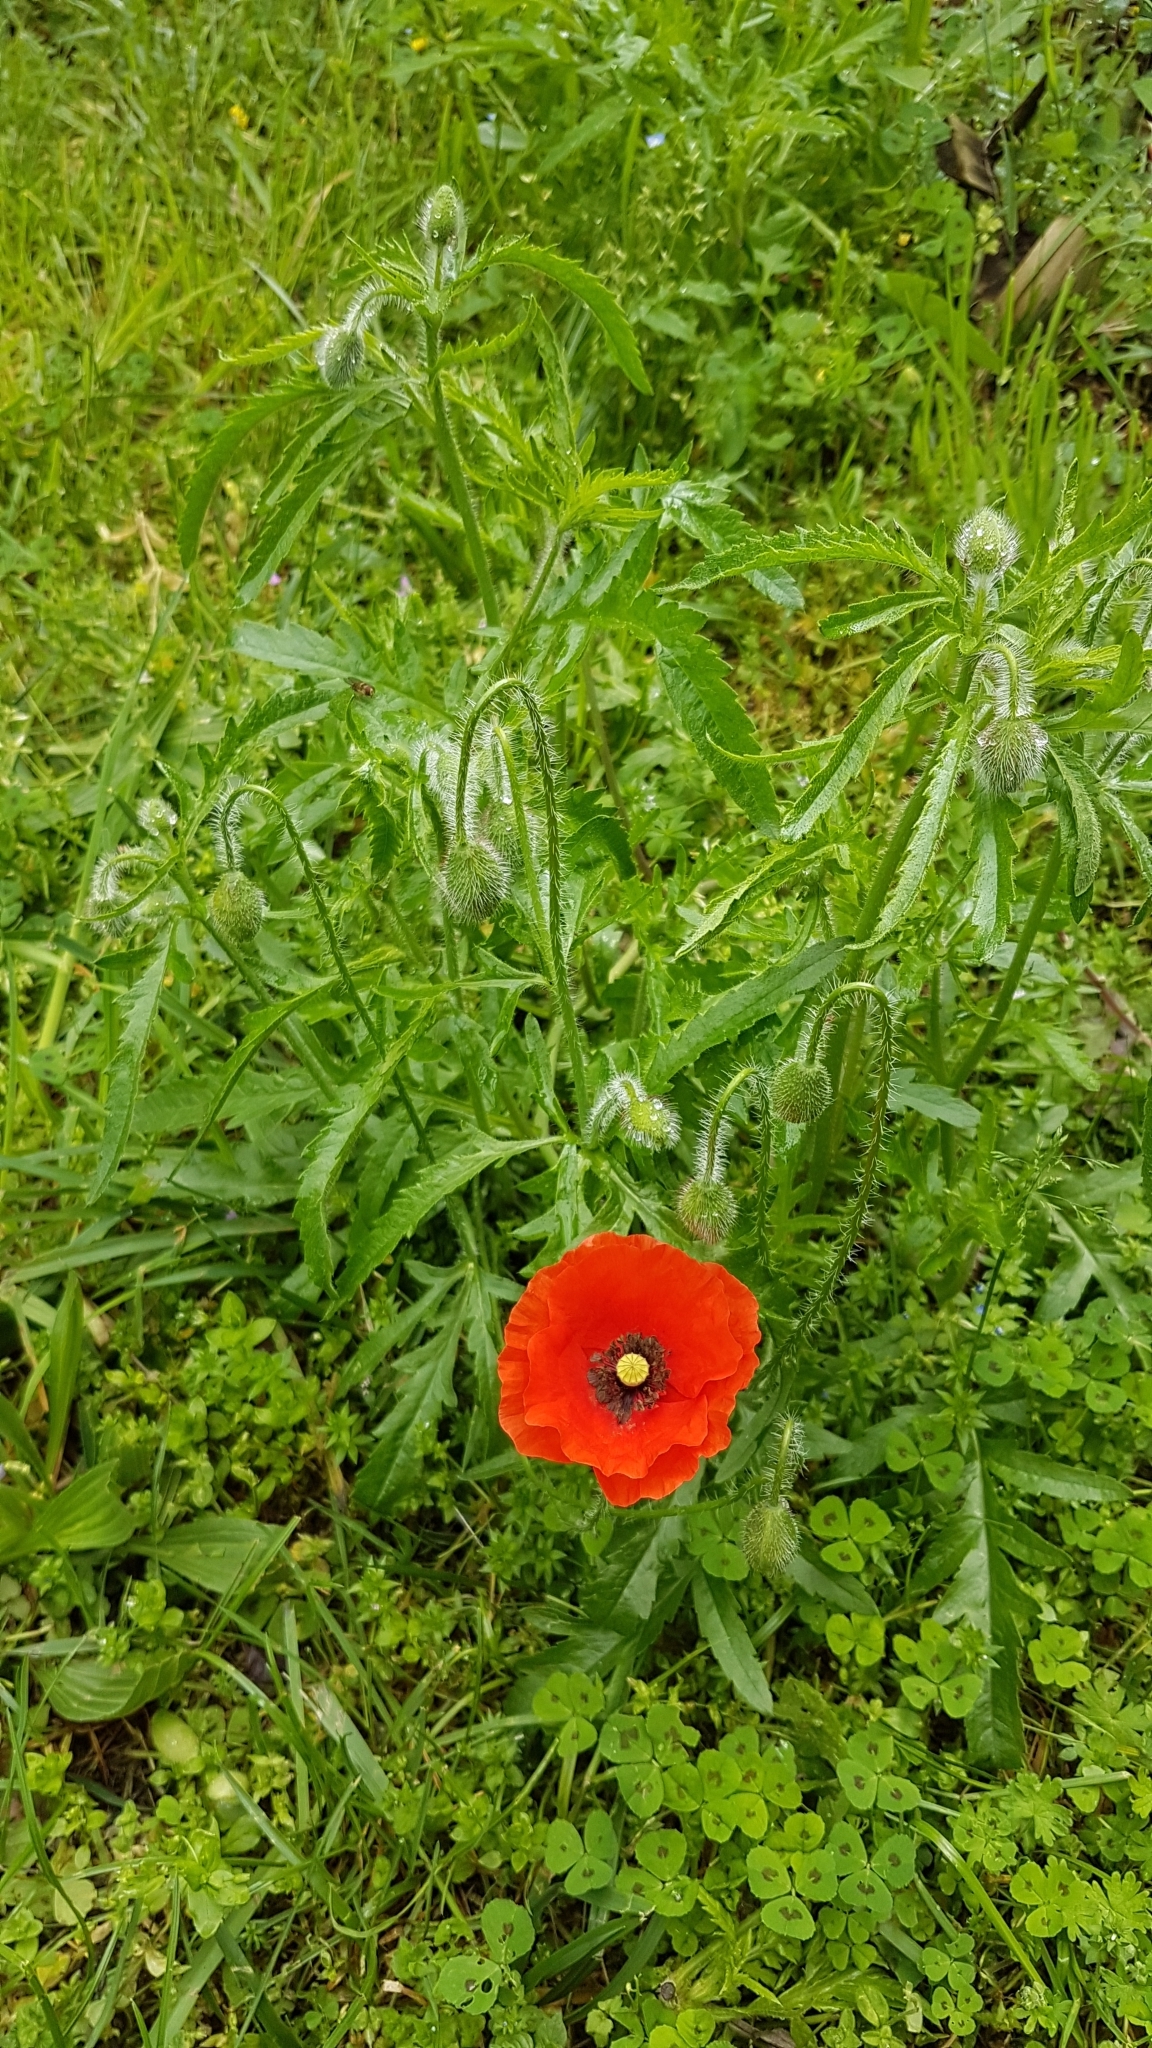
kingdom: Plantae
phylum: Tracheophyta
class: Magnoliopsida
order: Ranunculales
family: Papaveraceae
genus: Papaver
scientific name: Papaver rhoeas
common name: Corn poppy
